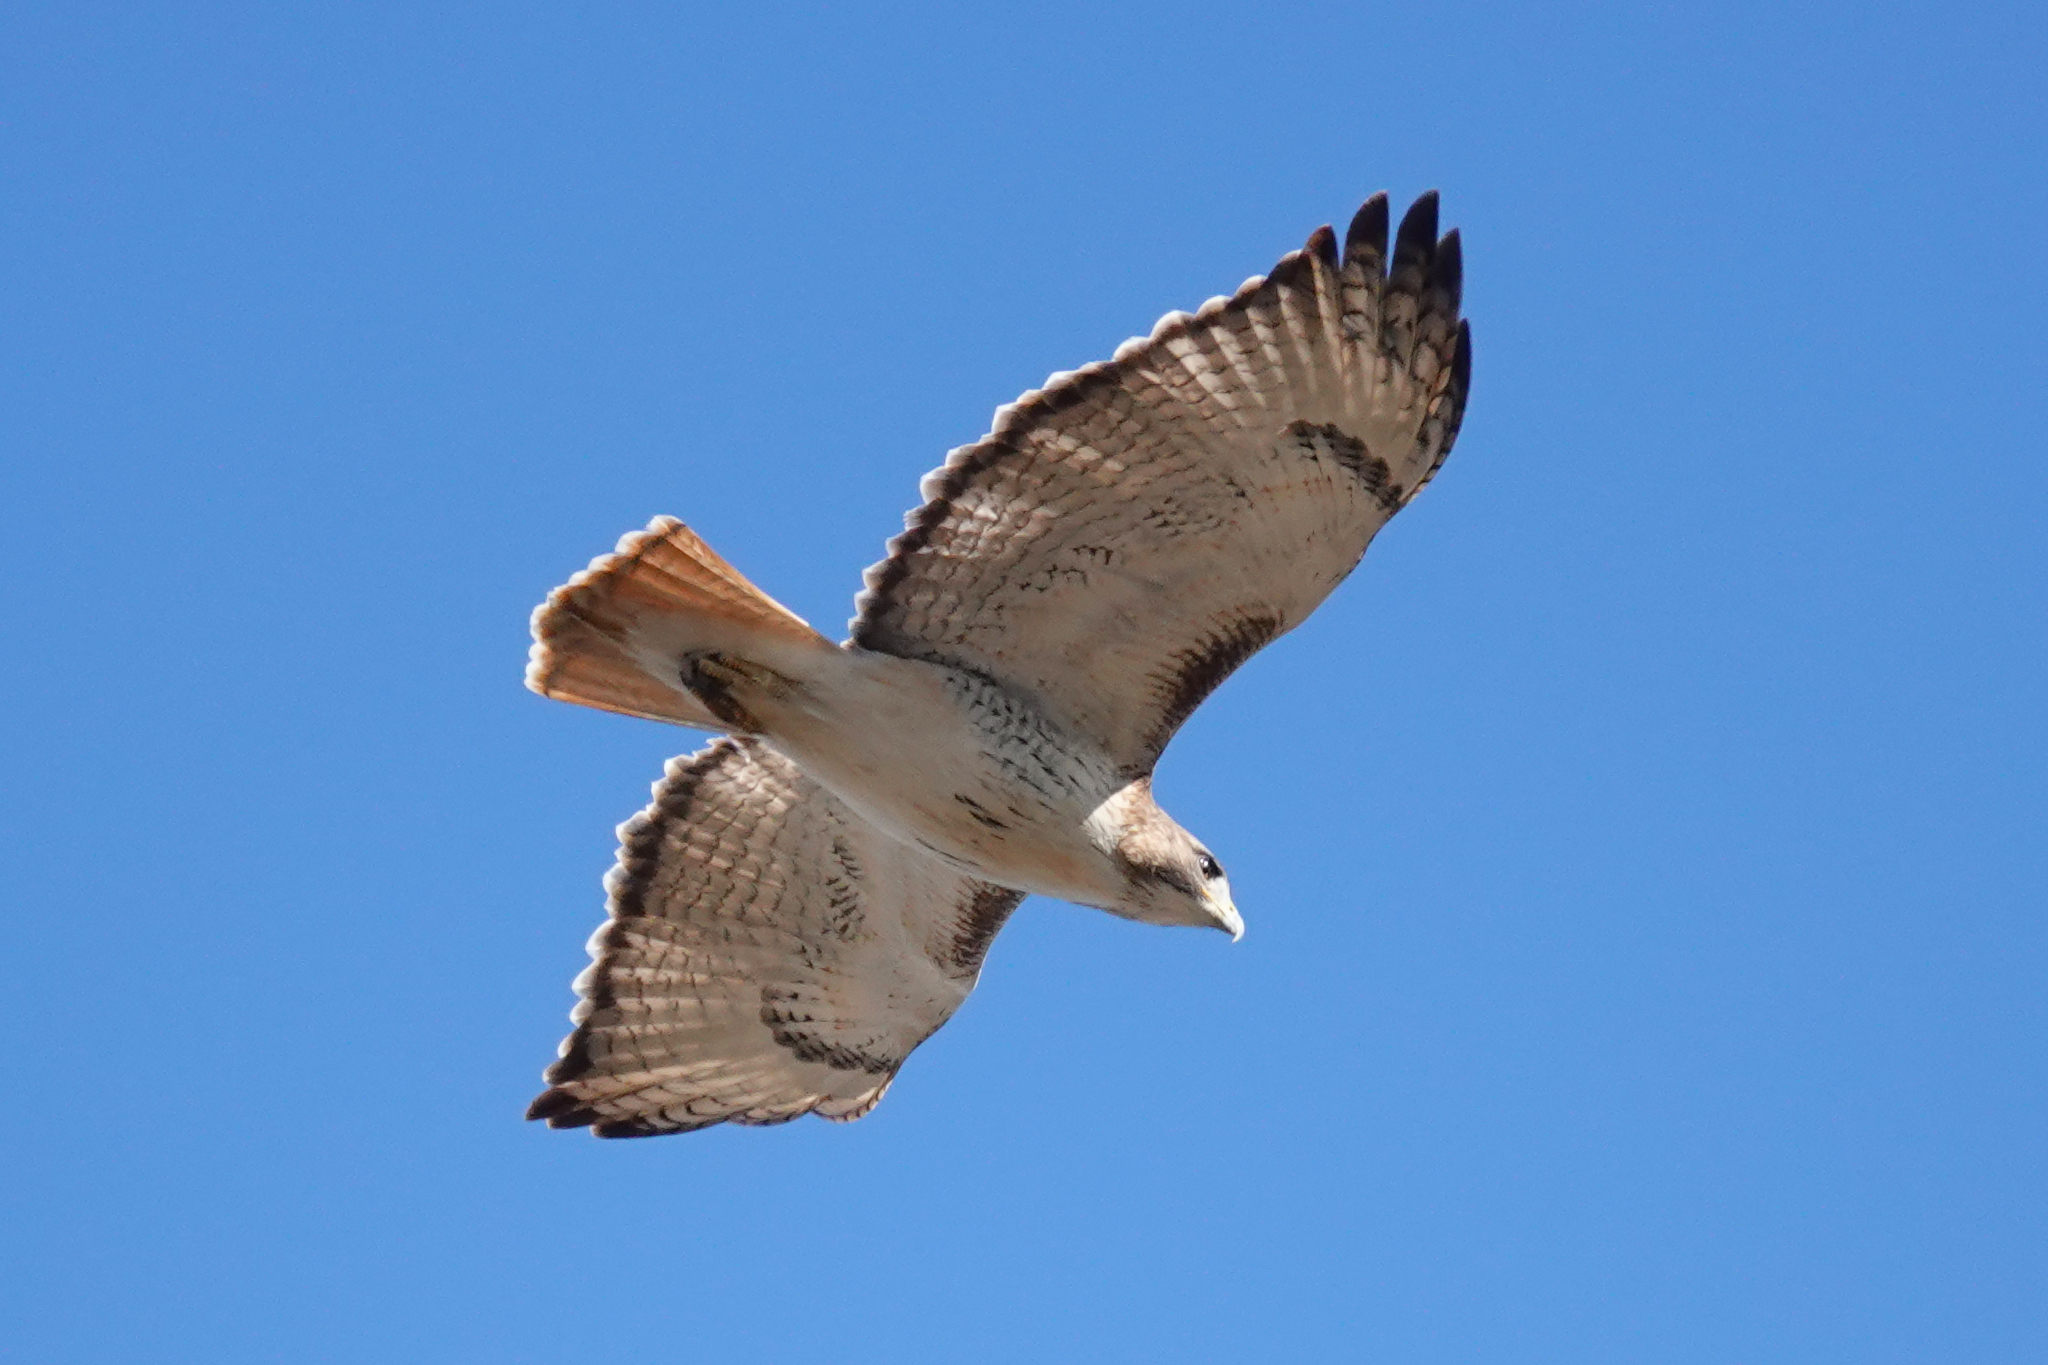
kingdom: Animalia
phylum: Chordata
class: Aves
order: Accipitriformes
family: Accipitridae
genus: Buteo
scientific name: Buteo jamaicensis
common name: Red-tailed hawk
